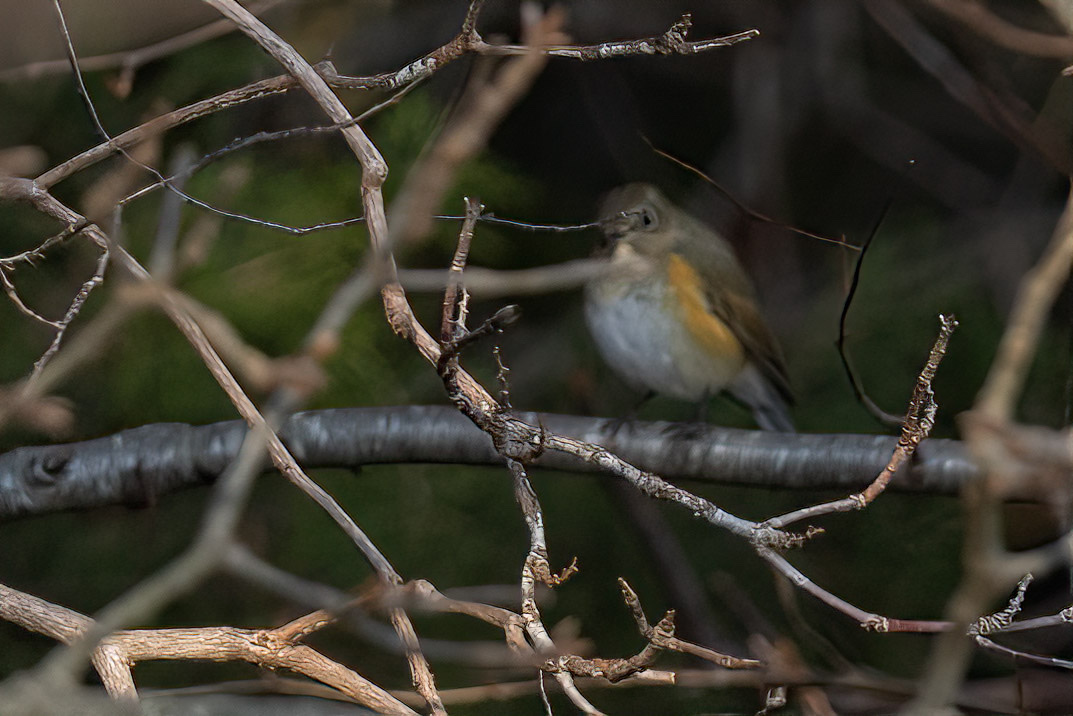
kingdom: Animalia
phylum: Chordata
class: Aves
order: Passeriformes
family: Muscicapidae
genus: Tarsiger
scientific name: Tarsiger cyanurus
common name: Red-flanked bluetail
